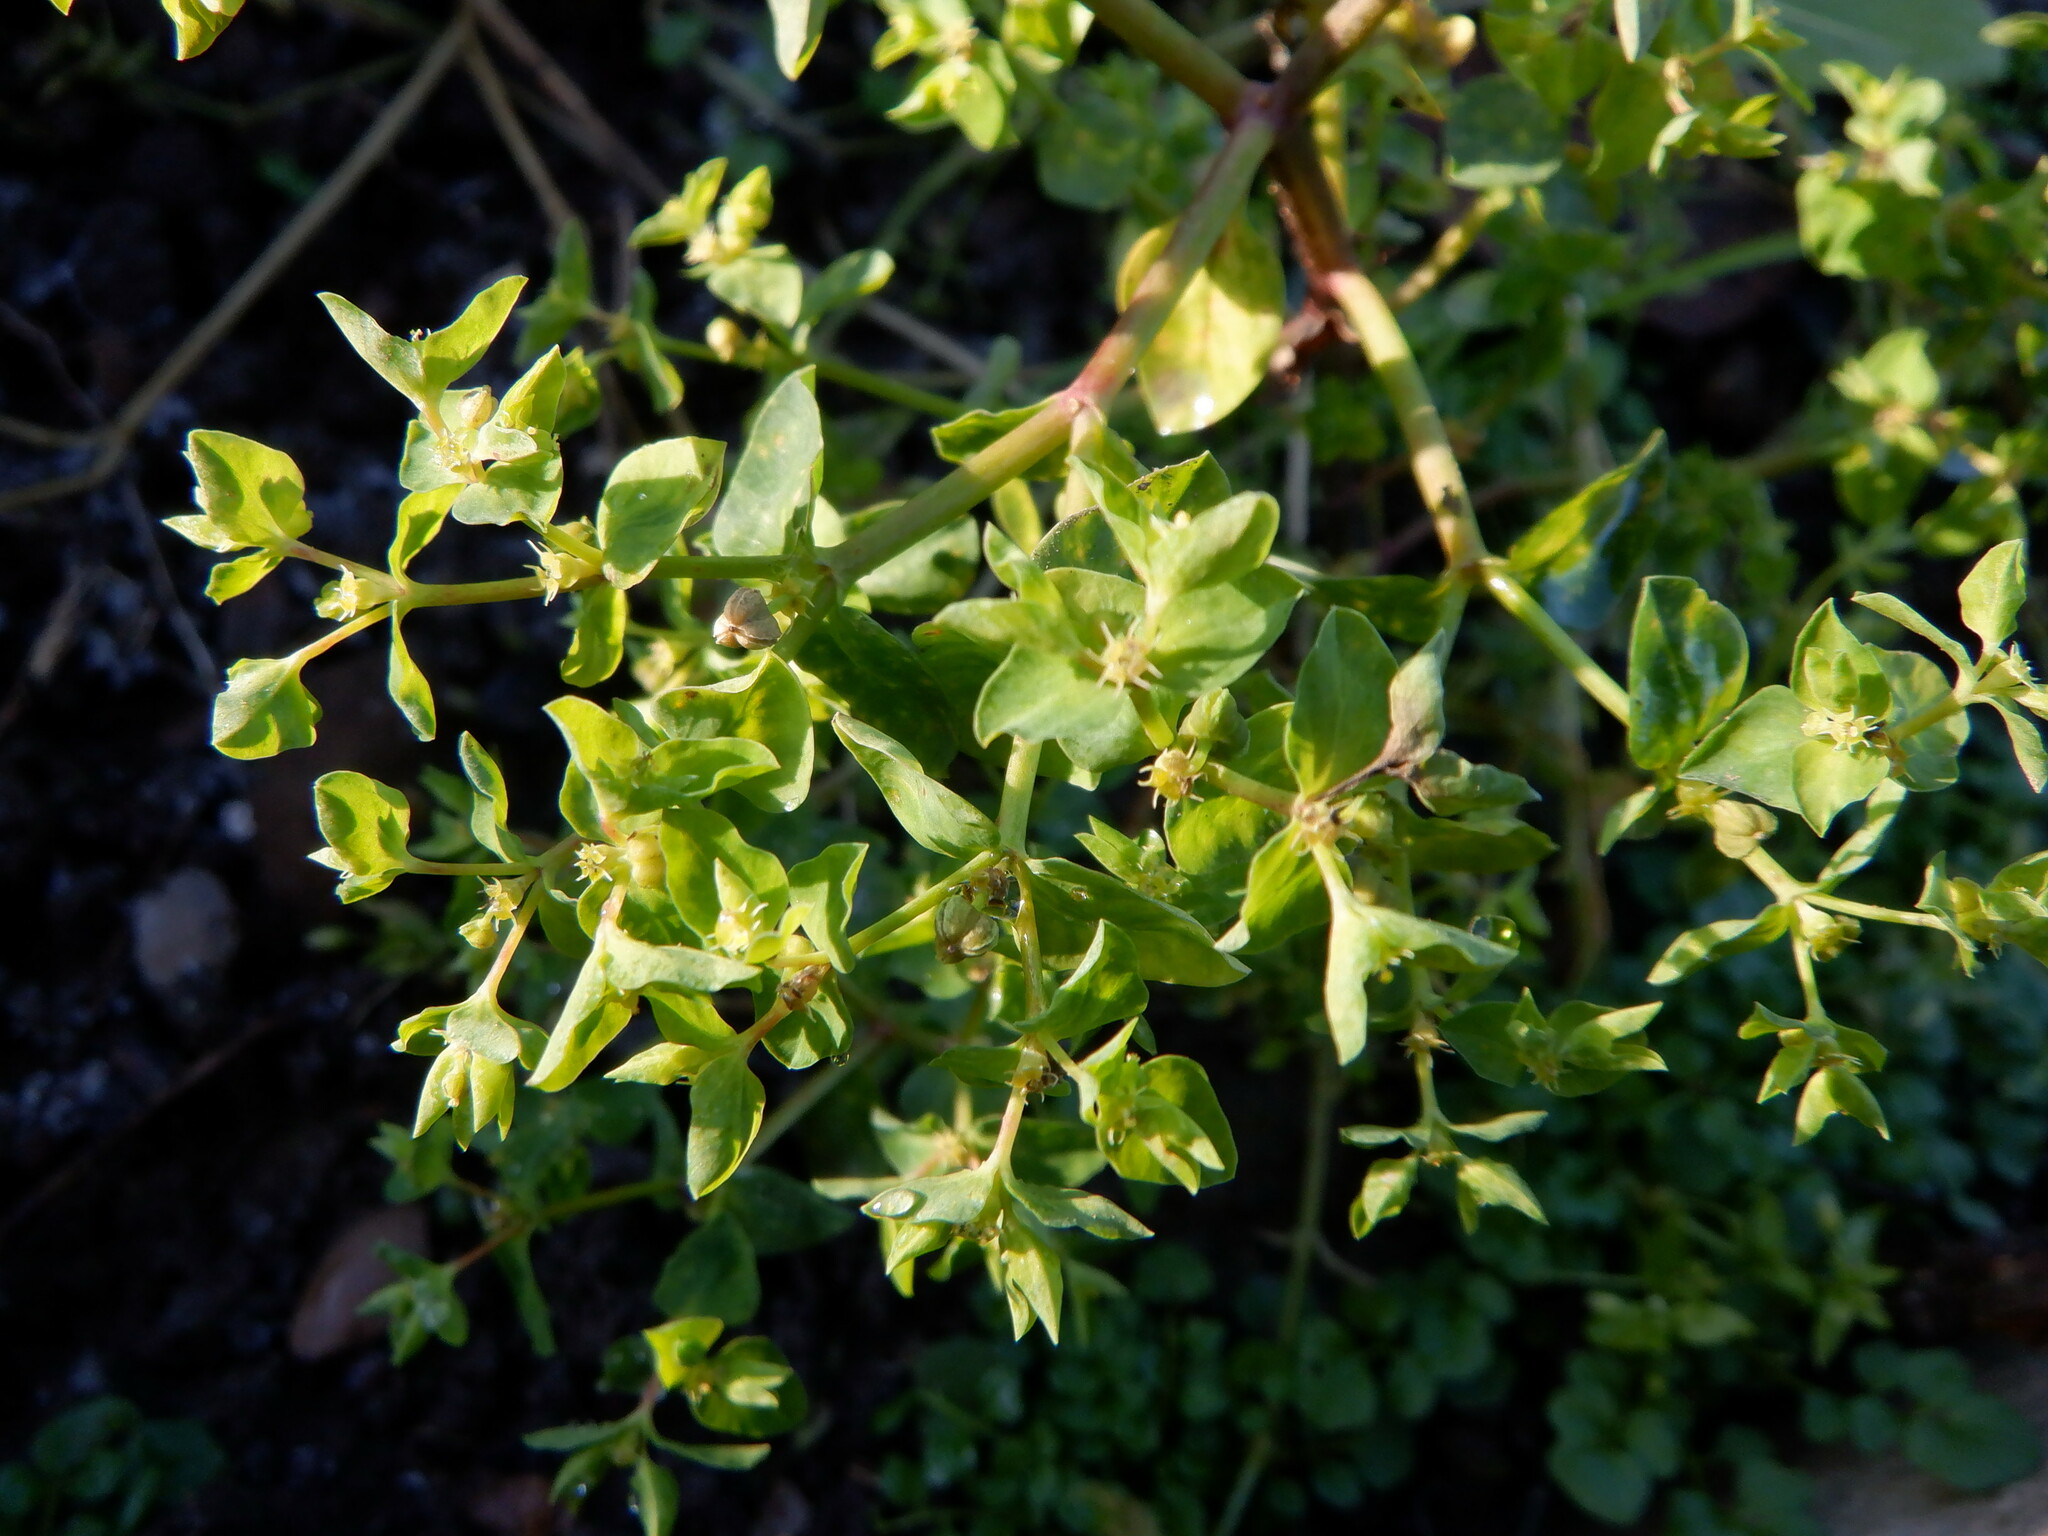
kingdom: Plantae
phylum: Tracheophyta
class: Magnoliopsida
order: Malpighiales
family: Euphorbiaceae
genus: Euphorbia
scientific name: Euphorbia peplus
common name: Petty spurge
